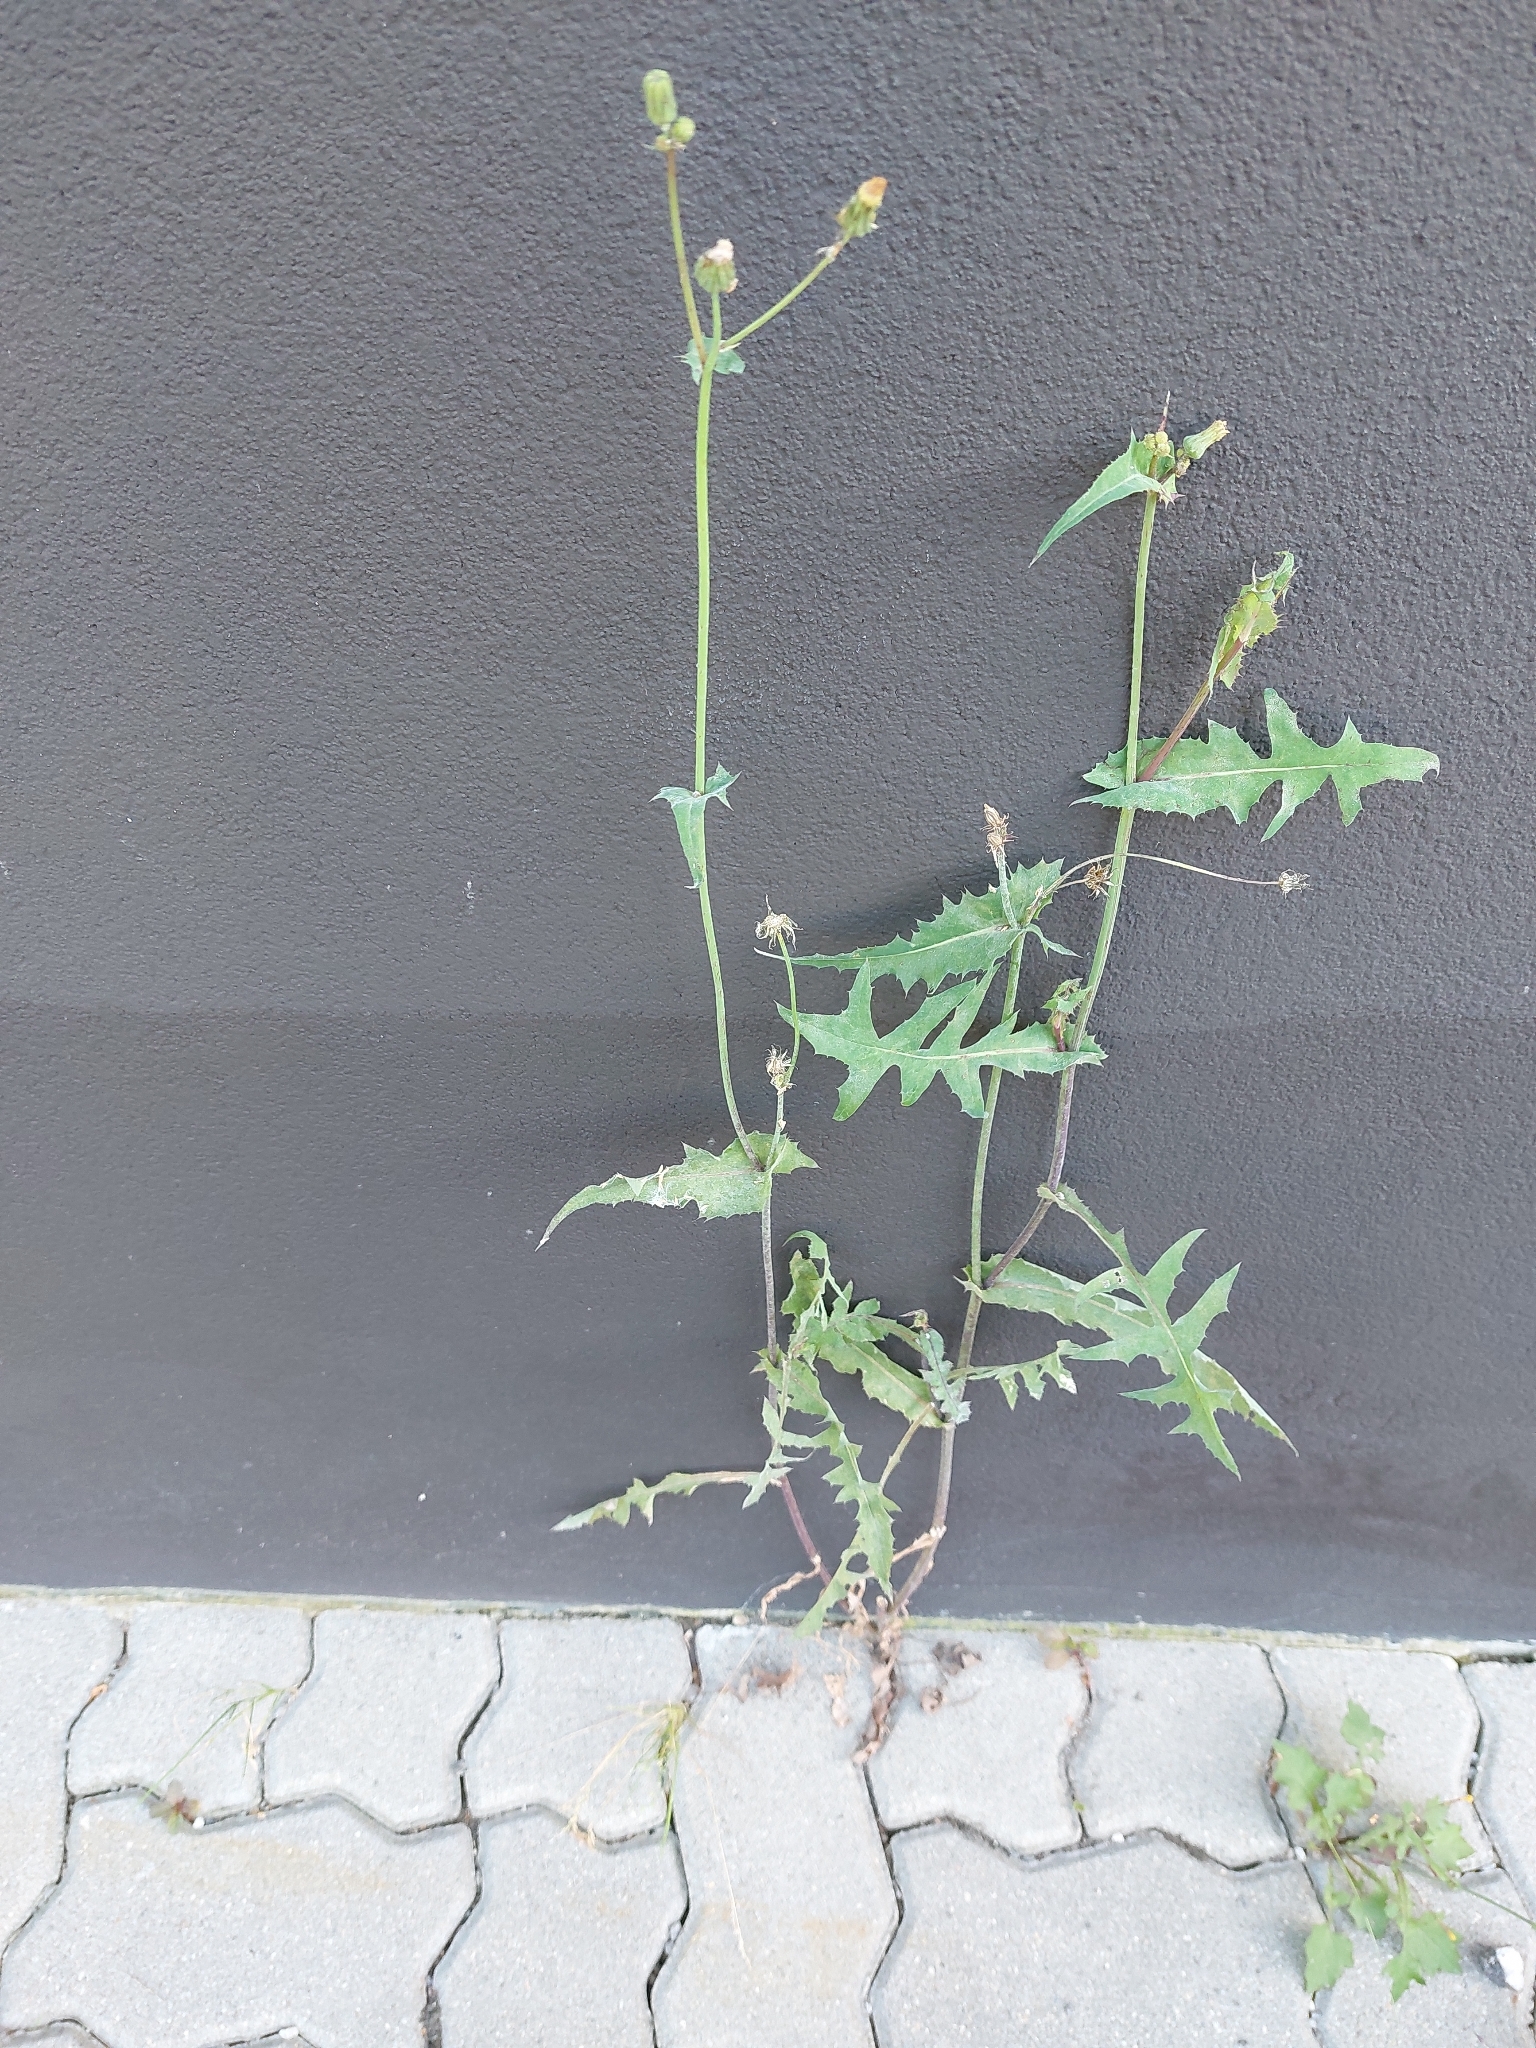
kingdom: Plantae
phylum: Tracheophyta
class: Magnoliopsida
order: Asterales
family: Asteraceae
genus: Sonchus
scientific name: Sonchus oleraceus
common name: Common sowthistle
